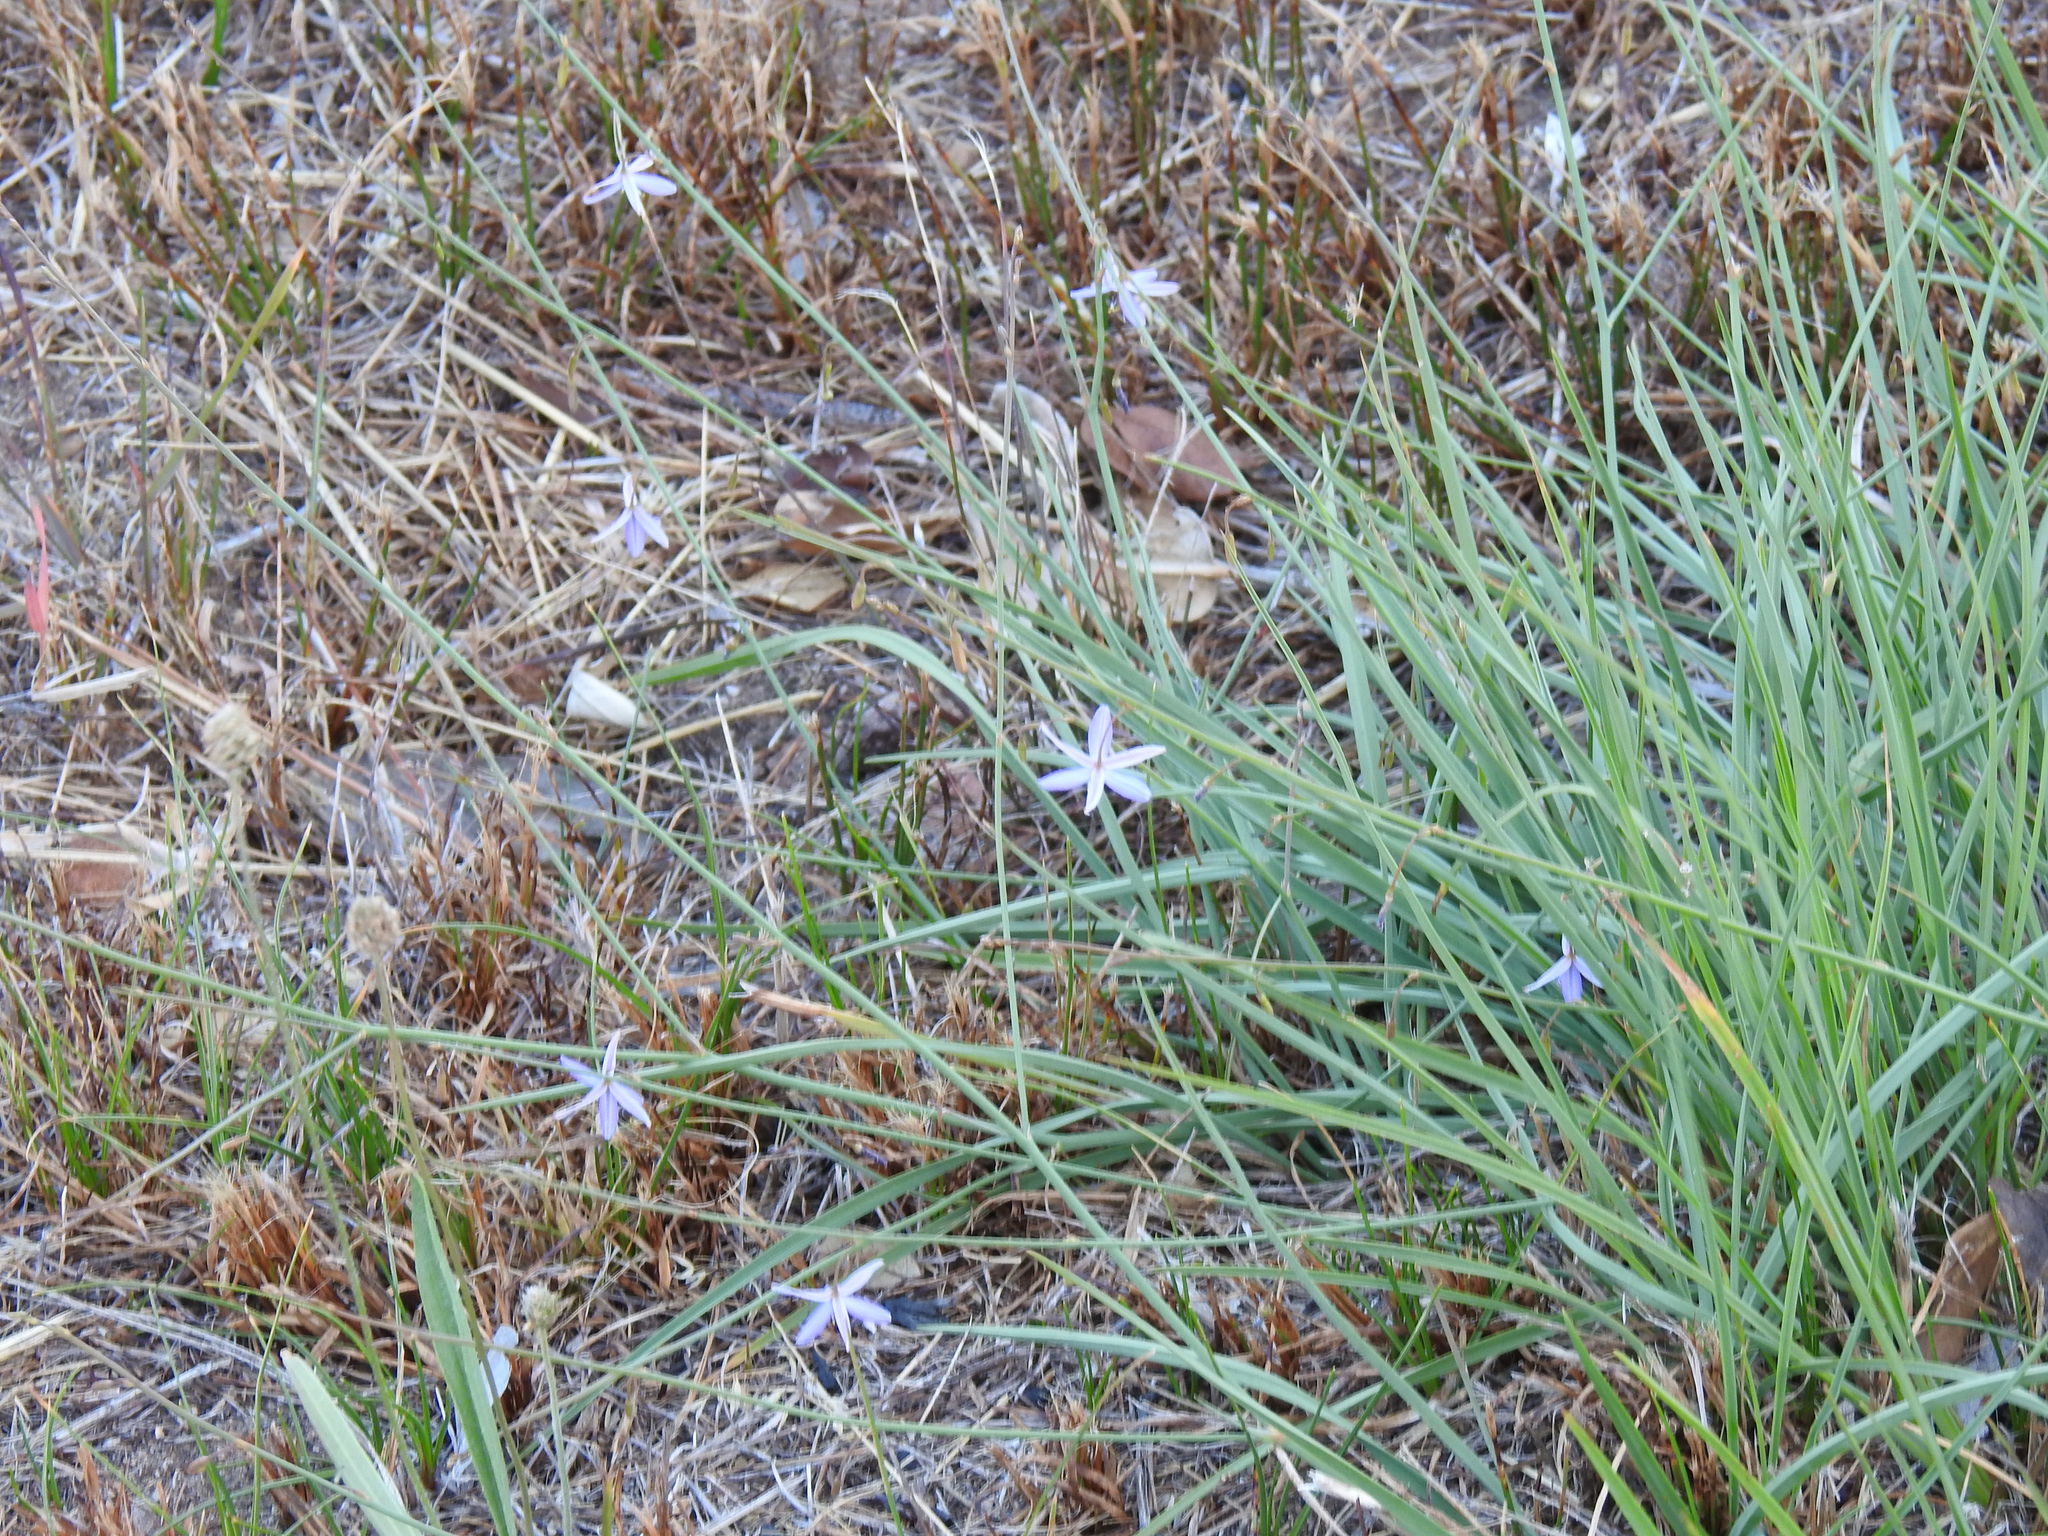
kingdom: Plantae
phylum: Tracheophyta
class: Liliopsida
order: Asparagales
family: Asphodelaceae
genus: Caesia
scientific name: Caesia contorta
